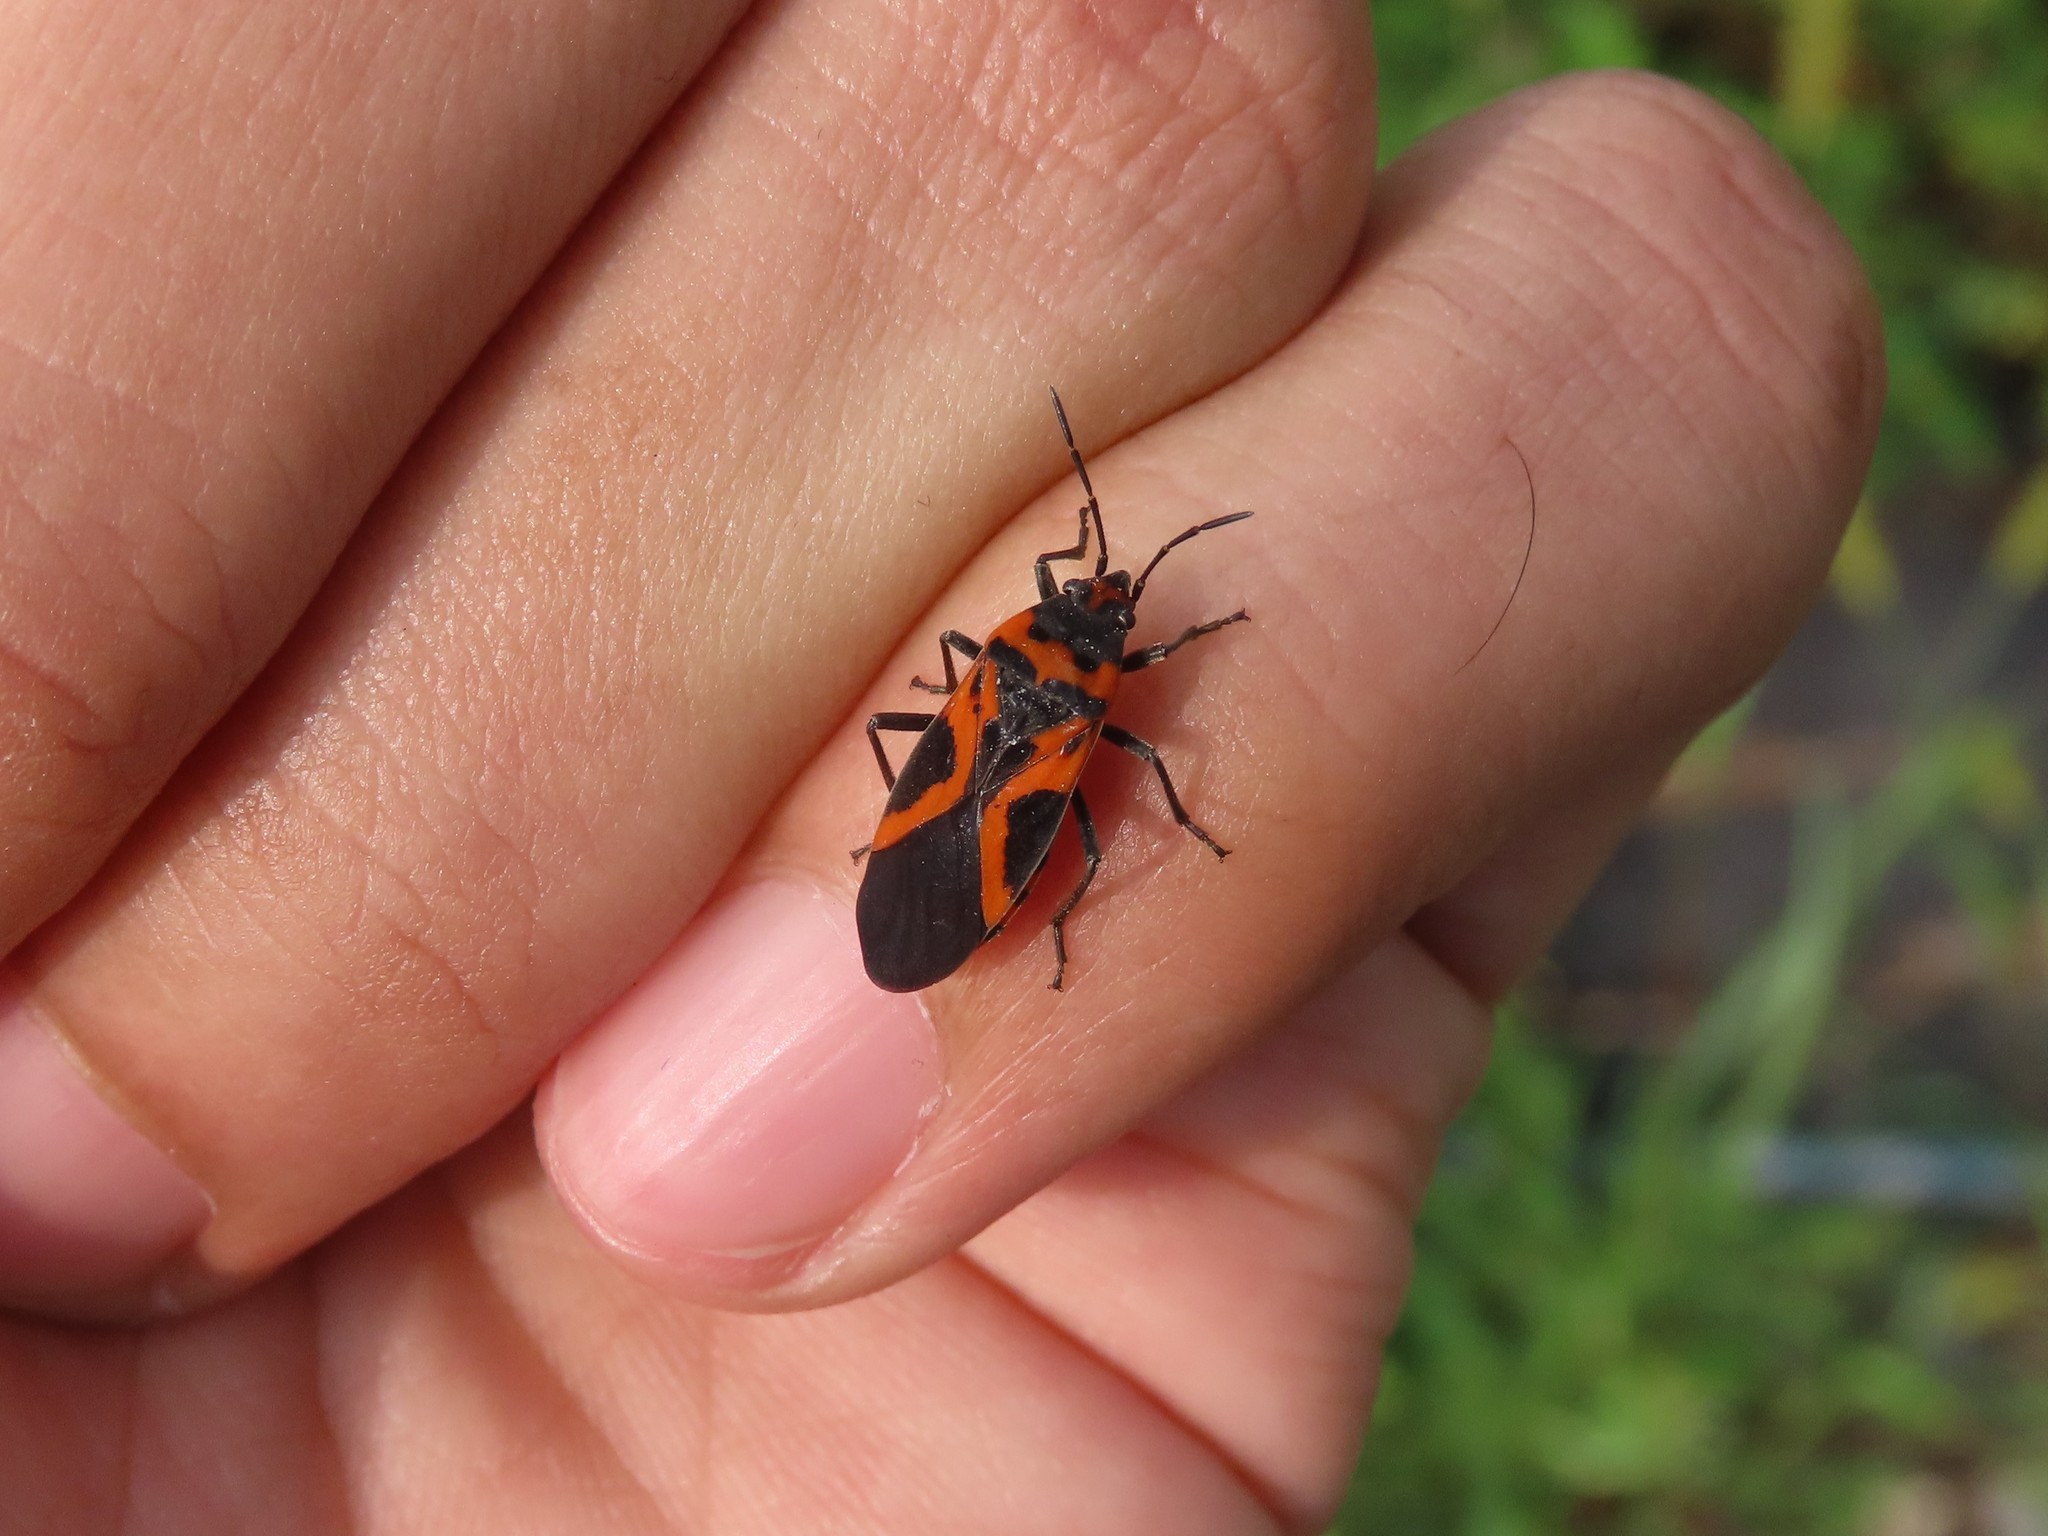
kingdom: Animalia
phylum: Arthropoda
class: Insecta
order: Hemiptera
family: Lygaeidae
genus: Lygaeus
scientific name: Lygaeus turcicus
